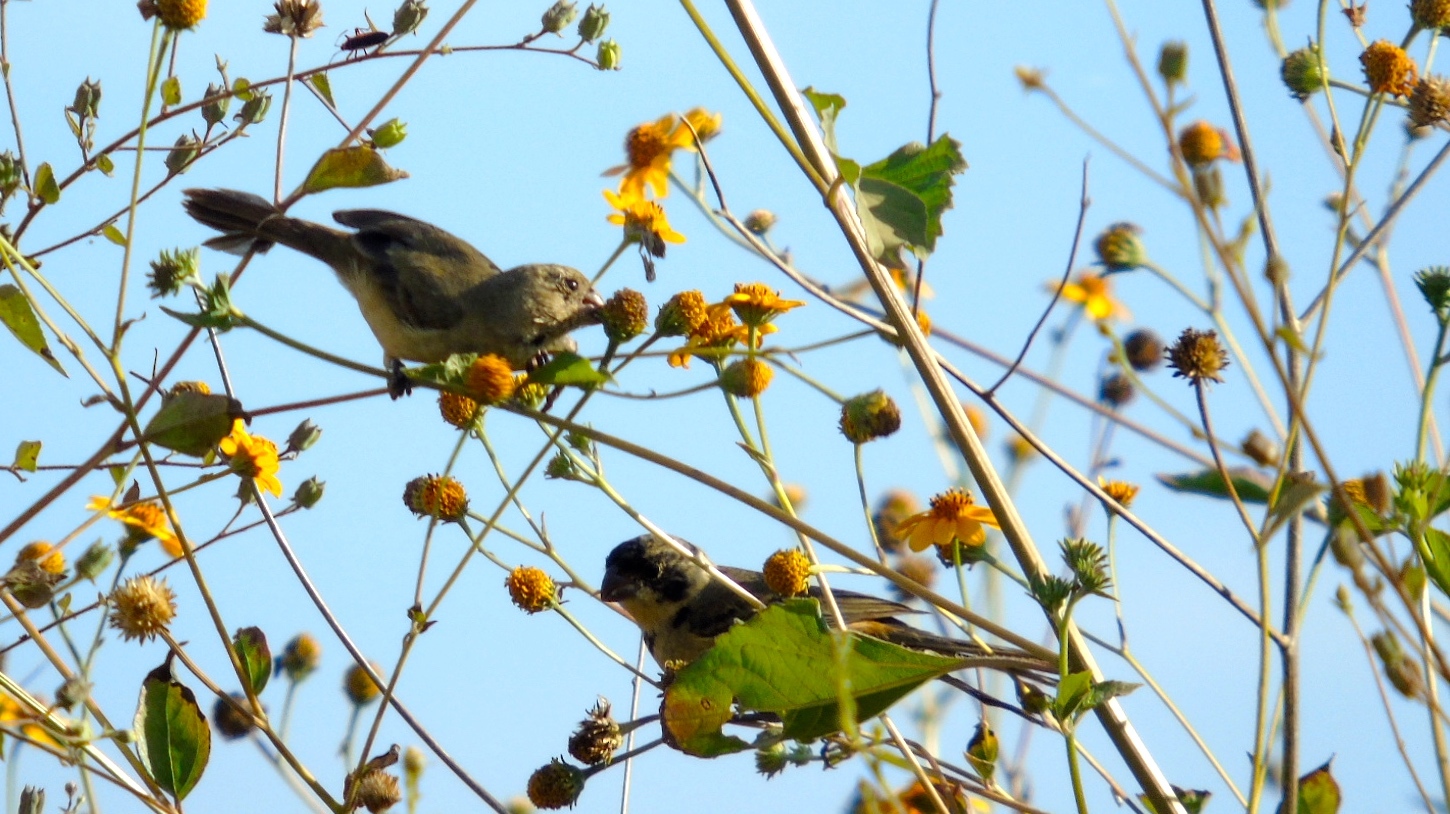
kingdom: Animalia
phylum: Chordata
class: Aves
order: Passeriformes
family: Thraupidae
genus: Sporophila
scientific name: Sporophila torqueola
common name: White-collared seedeater
